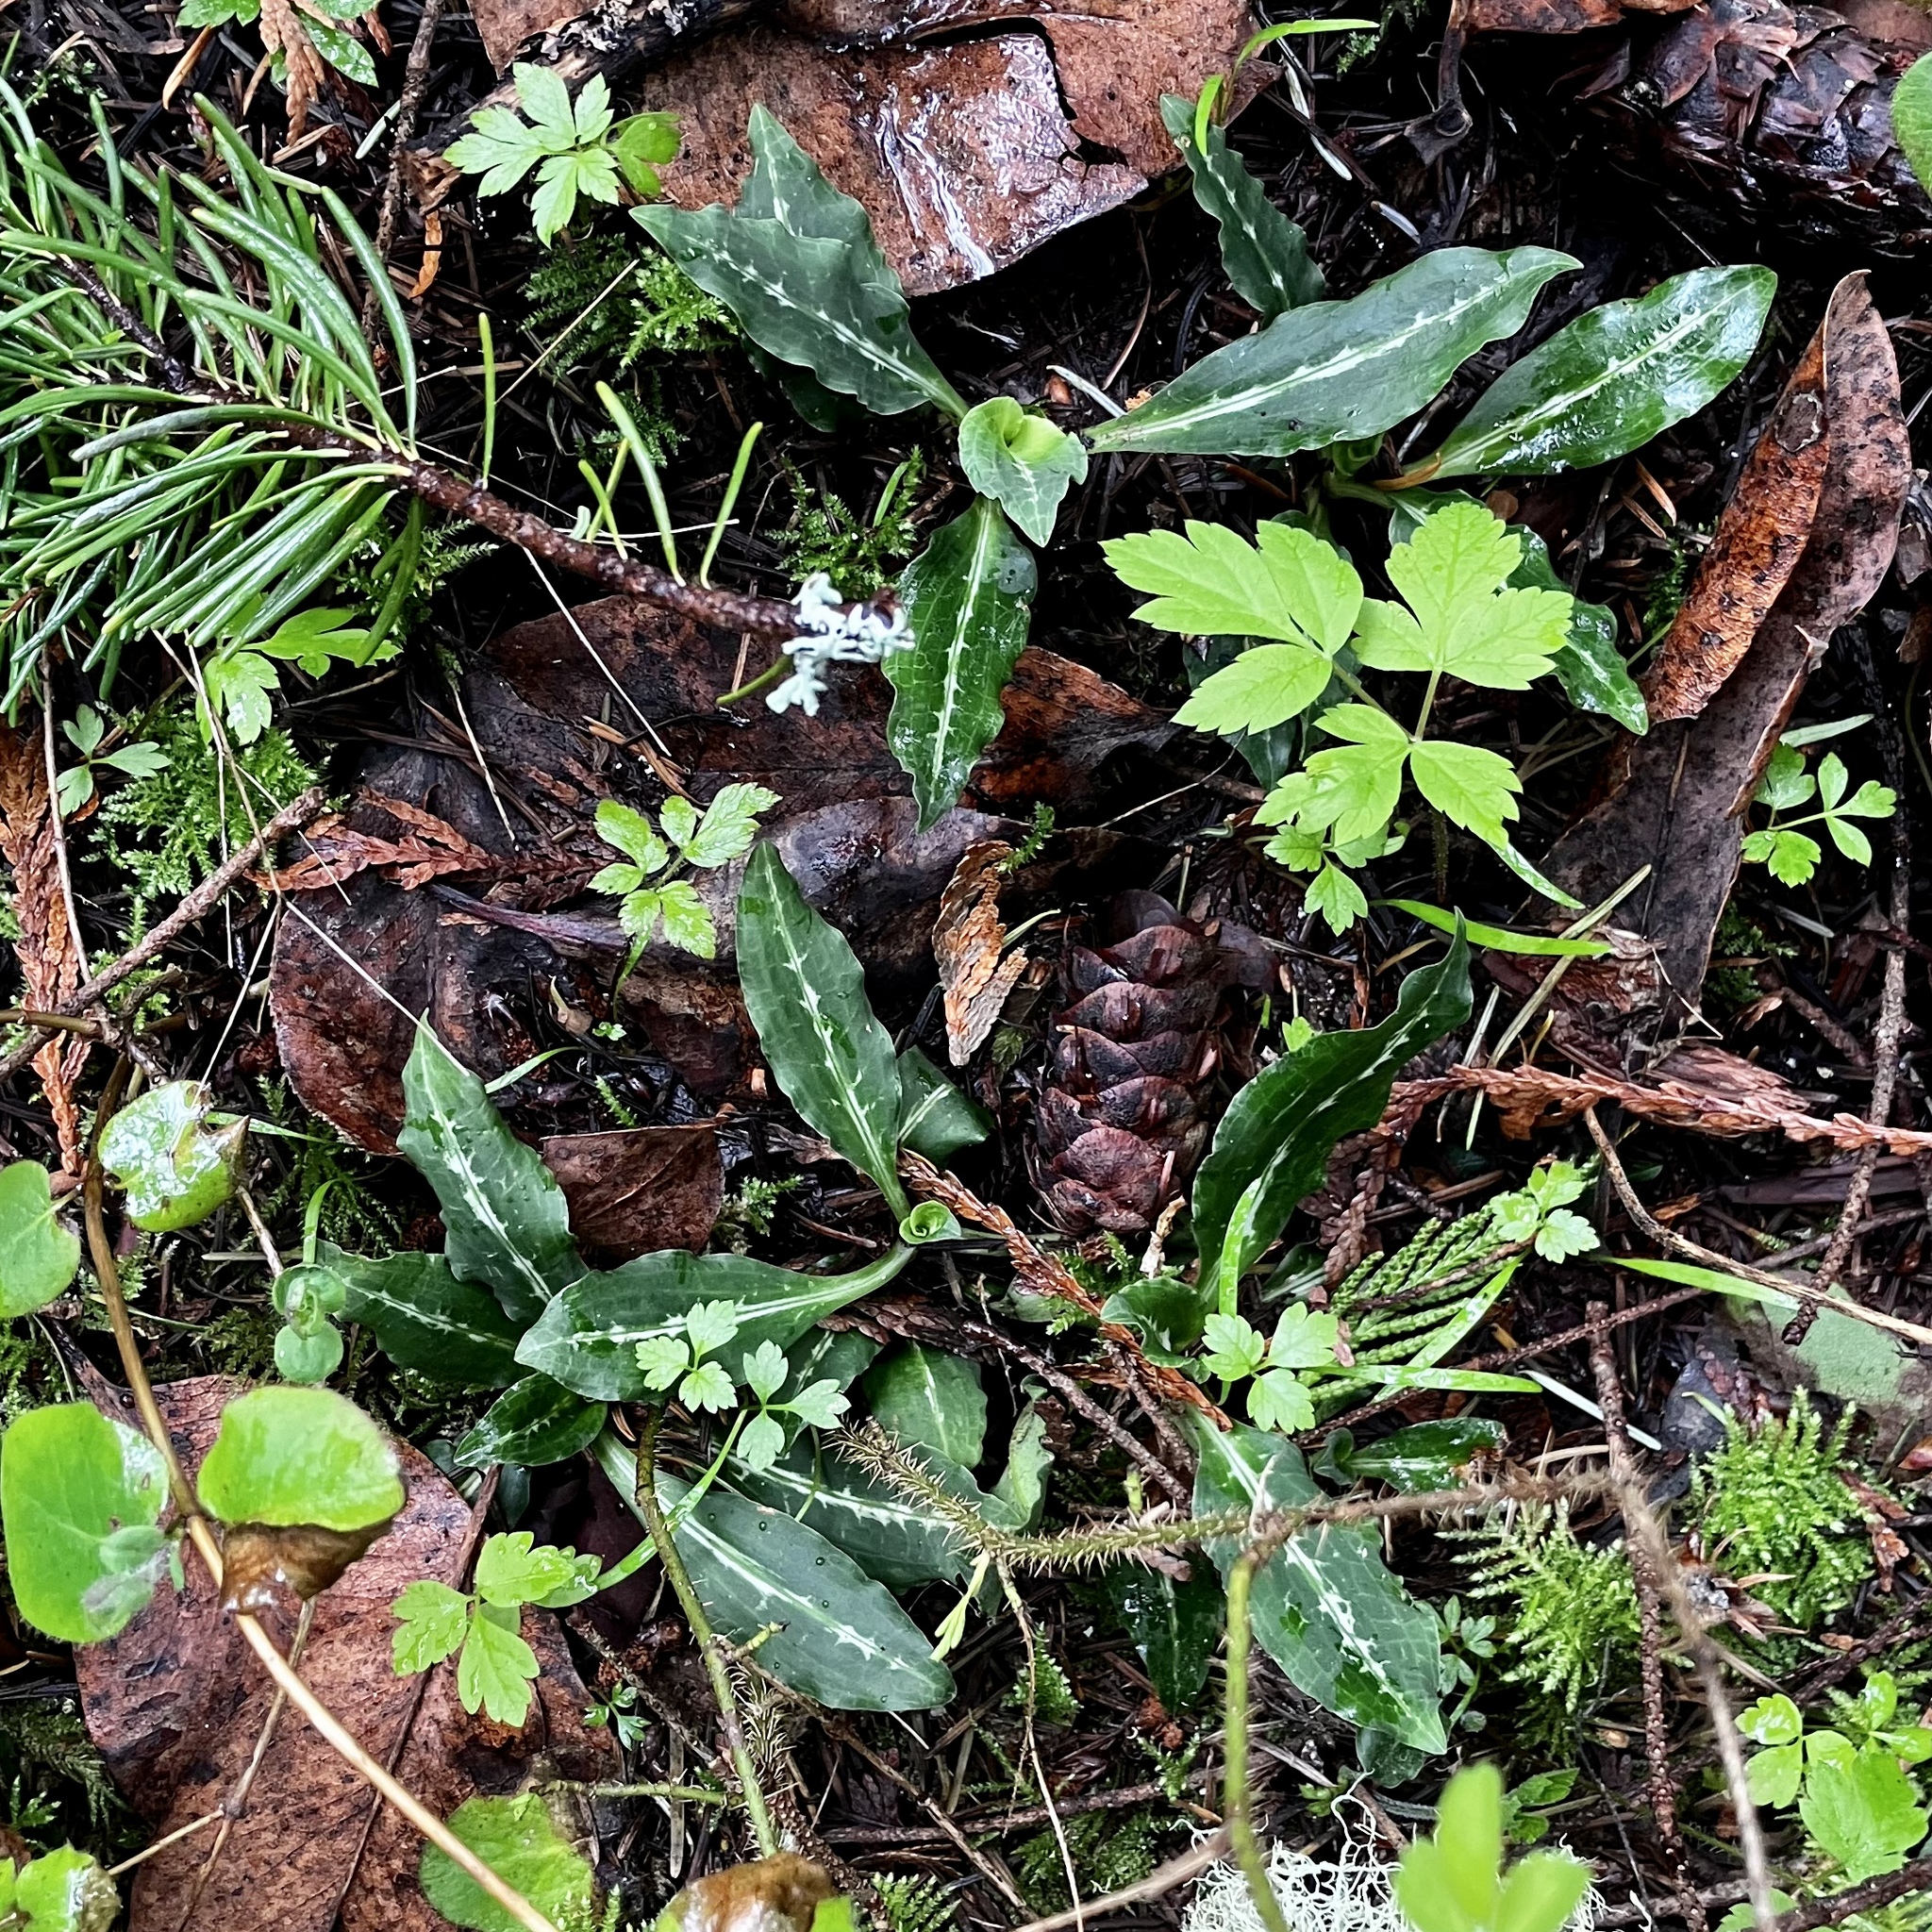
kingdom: Plantae
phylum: Tracheophyta
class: Liliopsida
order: Asparagales
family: Orchidaceae
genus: Goodyera
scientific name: Goodyera oblongifolia
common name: Giant rattlesnake-plantain
